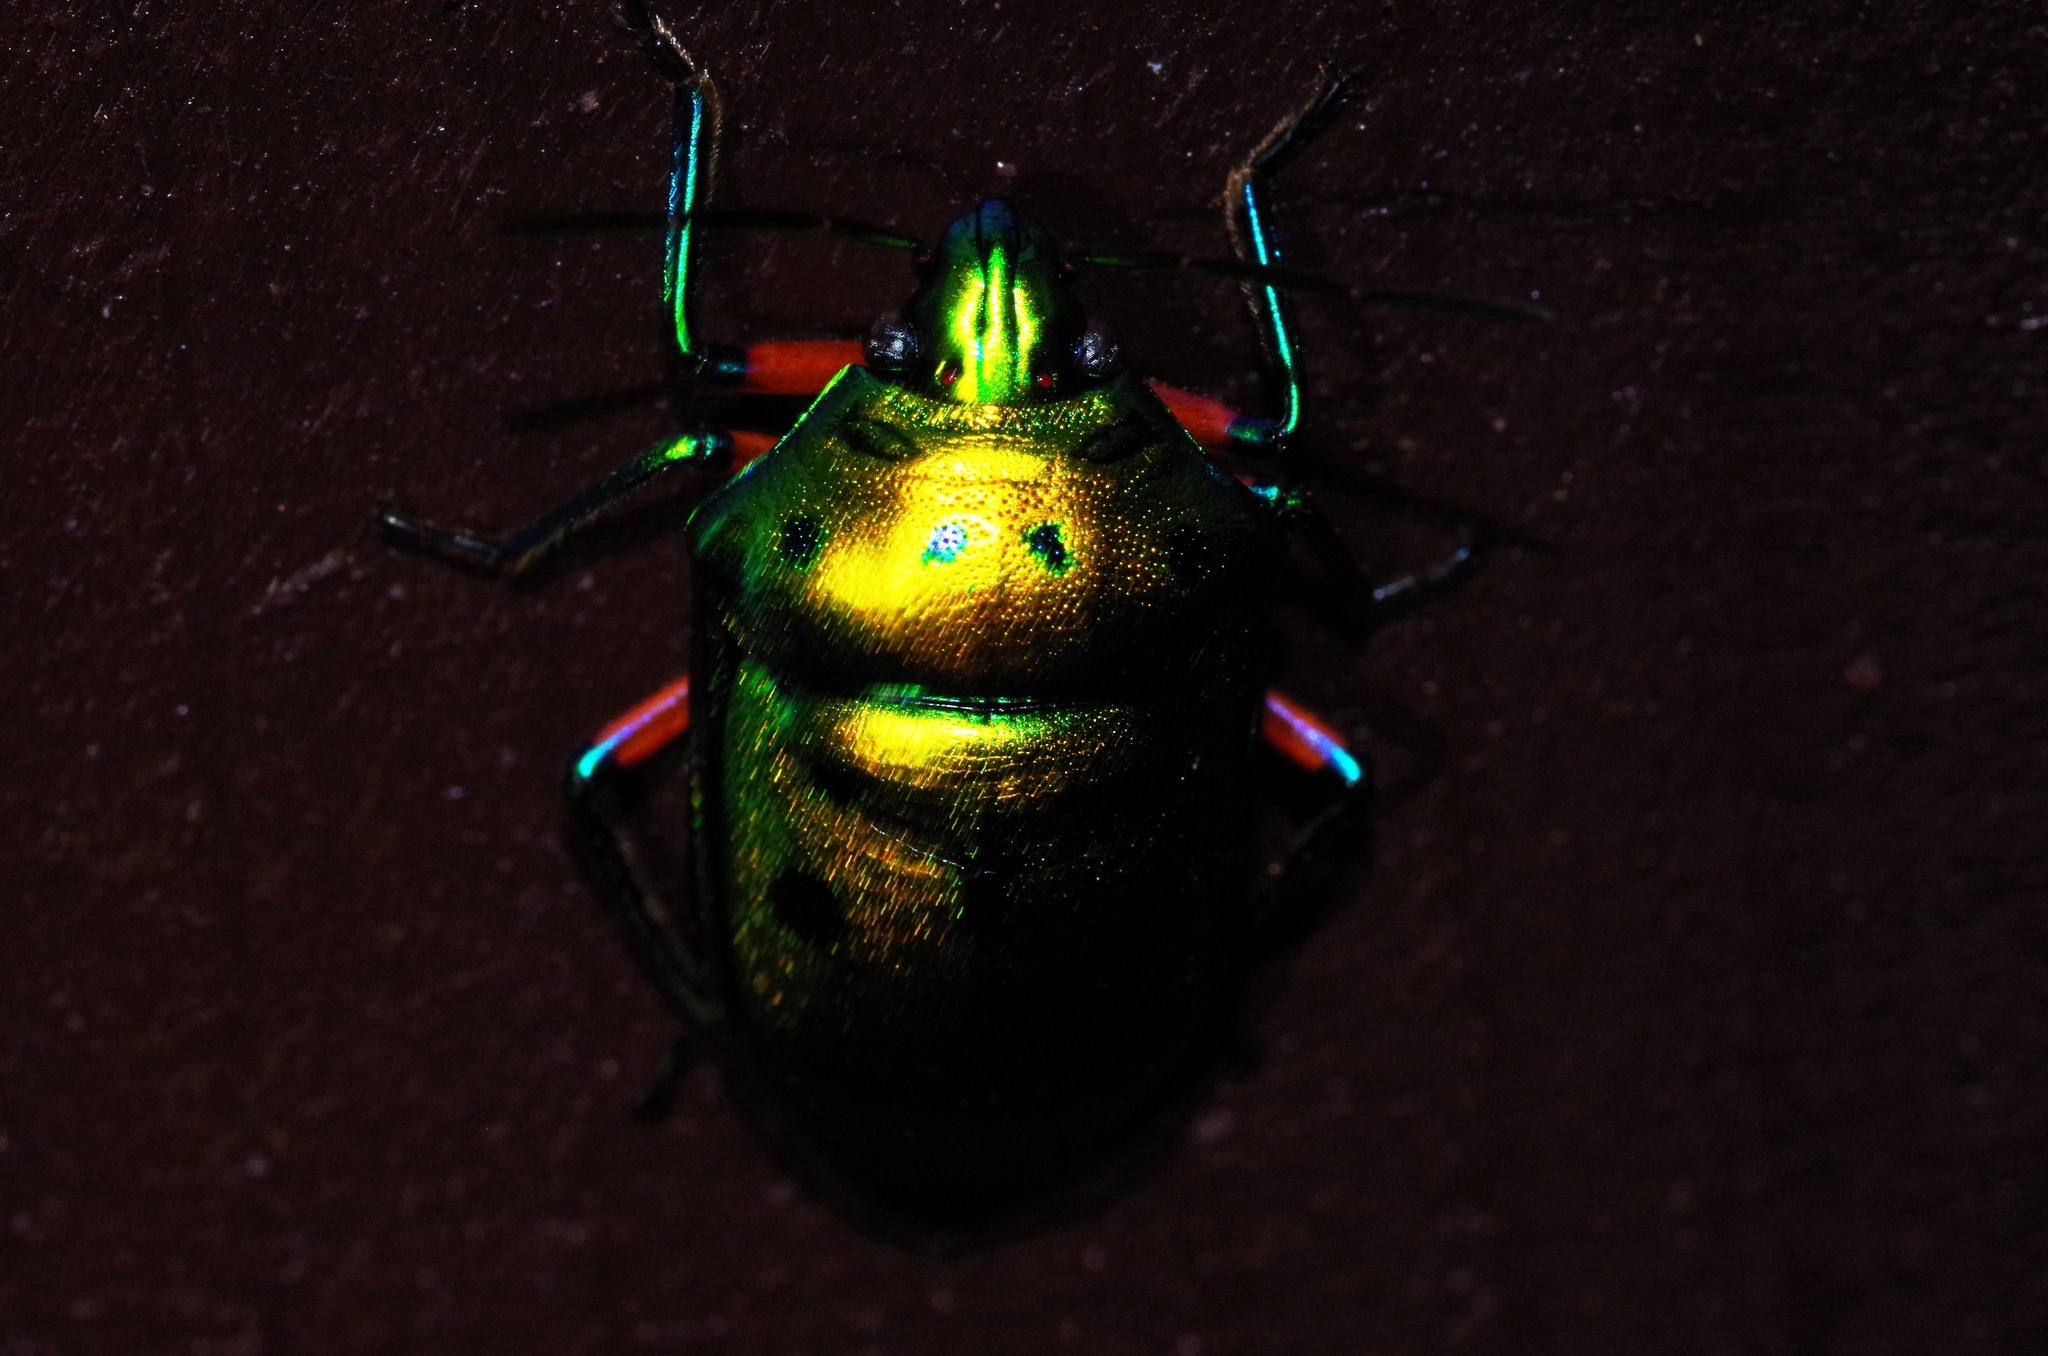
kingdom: Animalia
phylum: Arthropoda
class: Insecta
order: Hemiptera
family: Scutelleridae
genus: Calliphara
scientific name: Calliphara excellens
